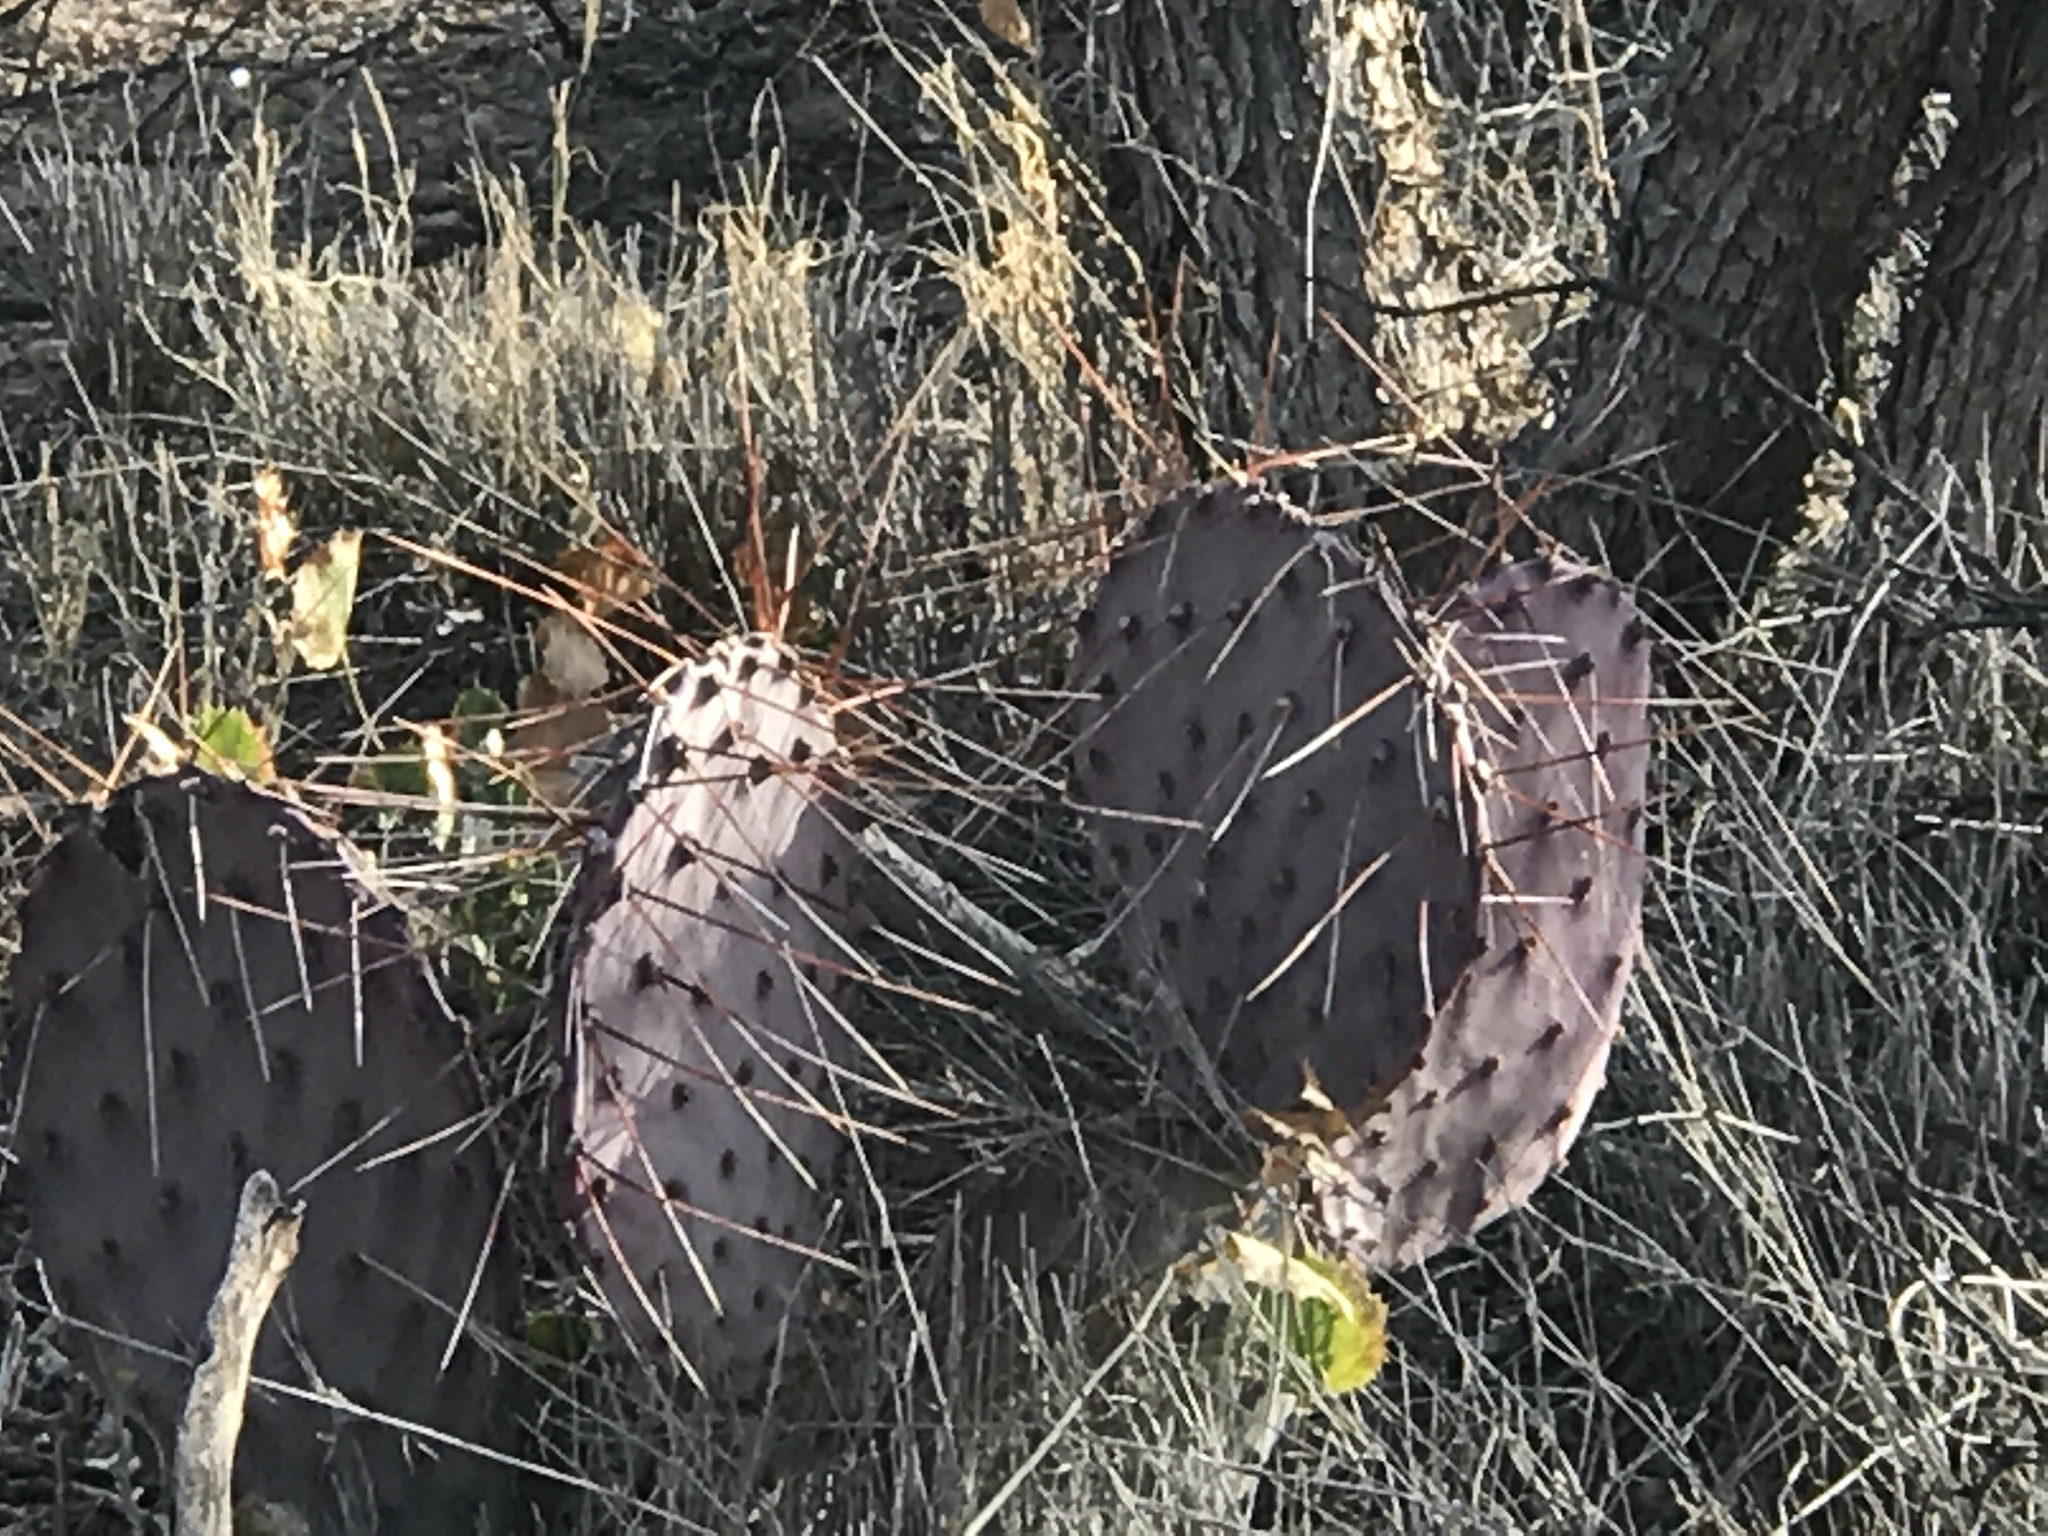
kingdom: Plantae
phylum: Tracheophyta
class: Magnoliopsida
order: Caryophyllales
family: Cactaceae
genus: Opuntia
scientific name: Opuntia macrocentra
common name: Purple prickly-pear
